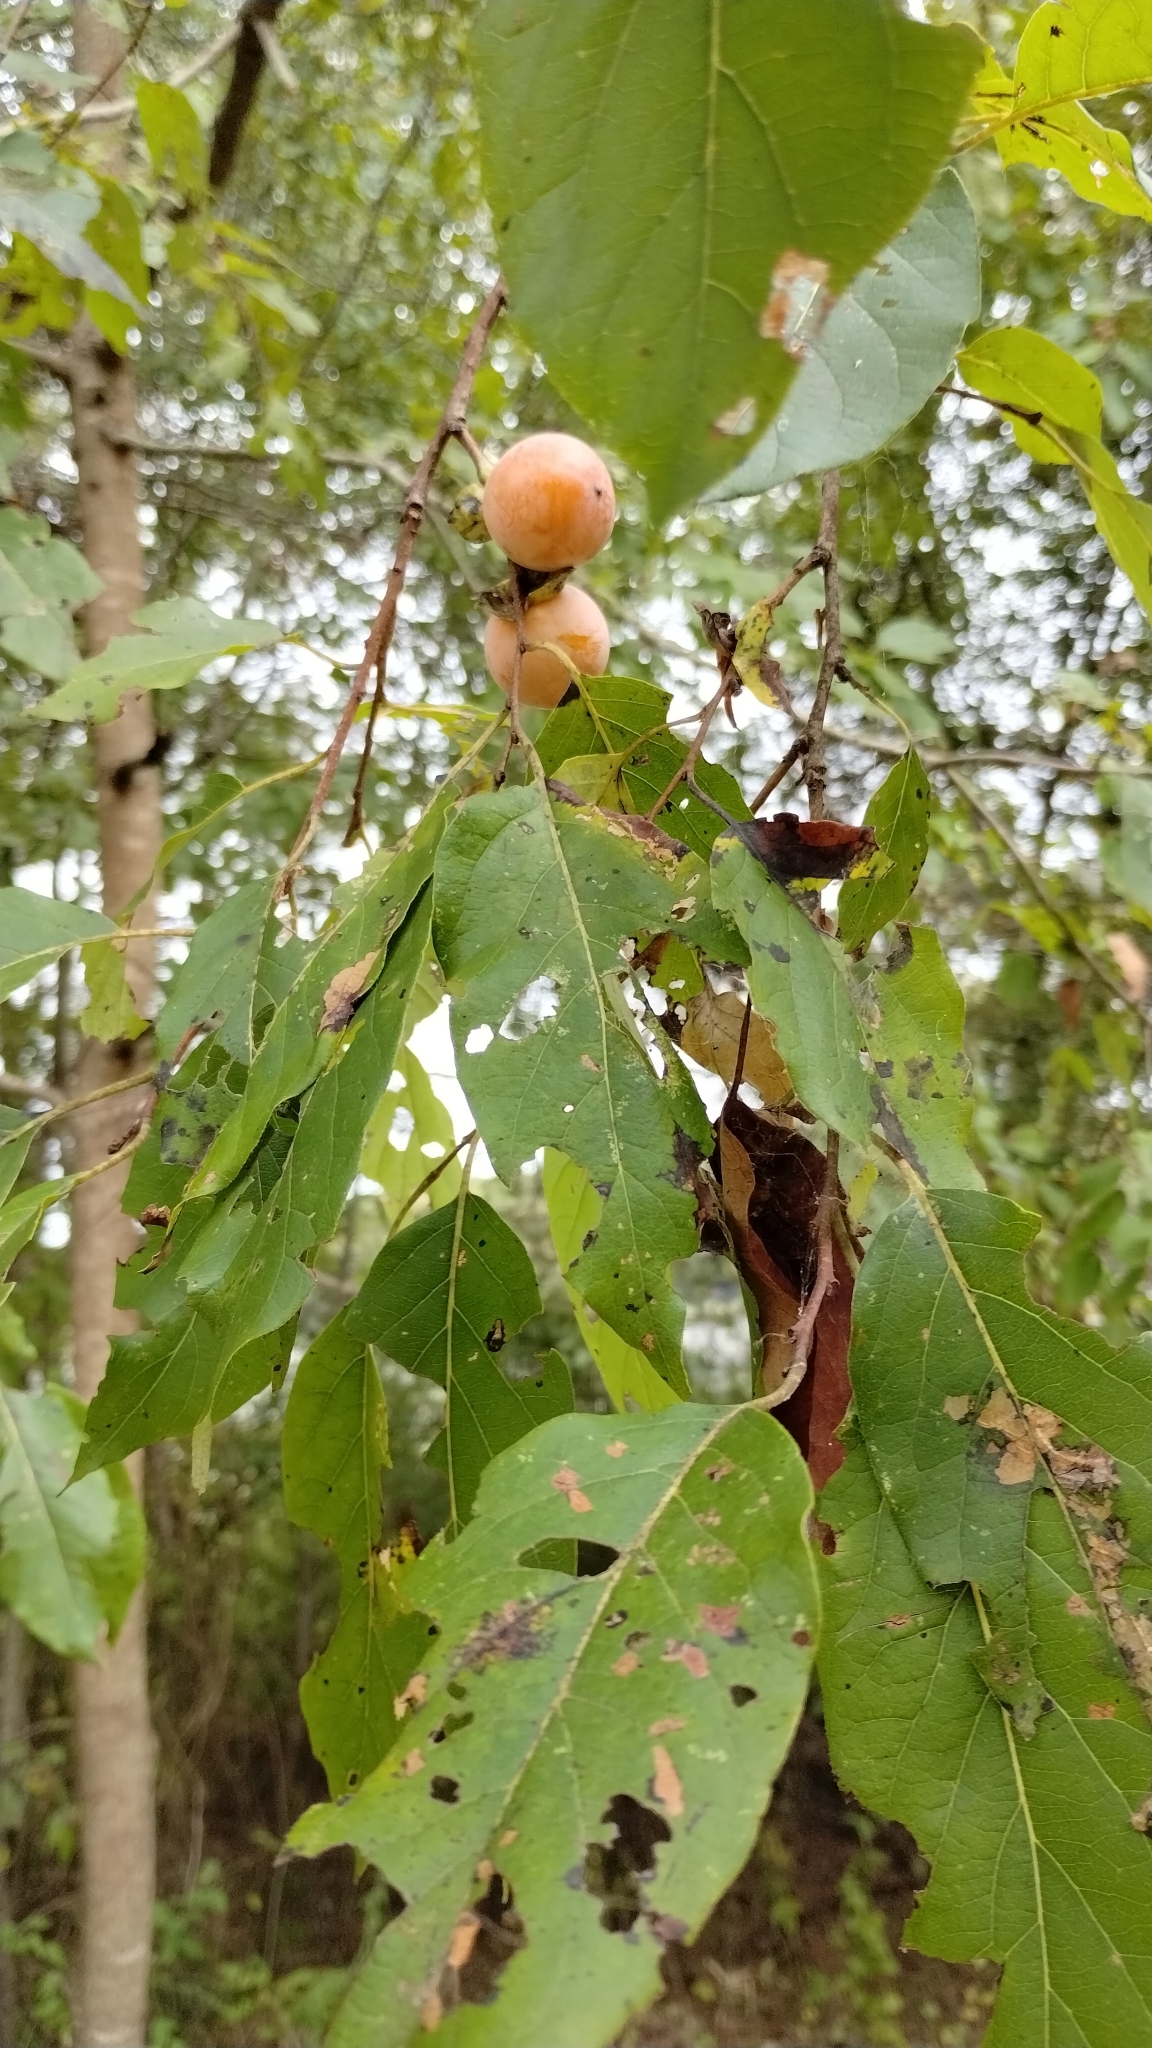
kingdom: Plantae
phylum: Tracheophyta
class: Magnoliopsida
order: Ericales
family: Ebenaceae
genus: Diospyros
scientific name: Diospyros virginiana
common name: Persimmon
